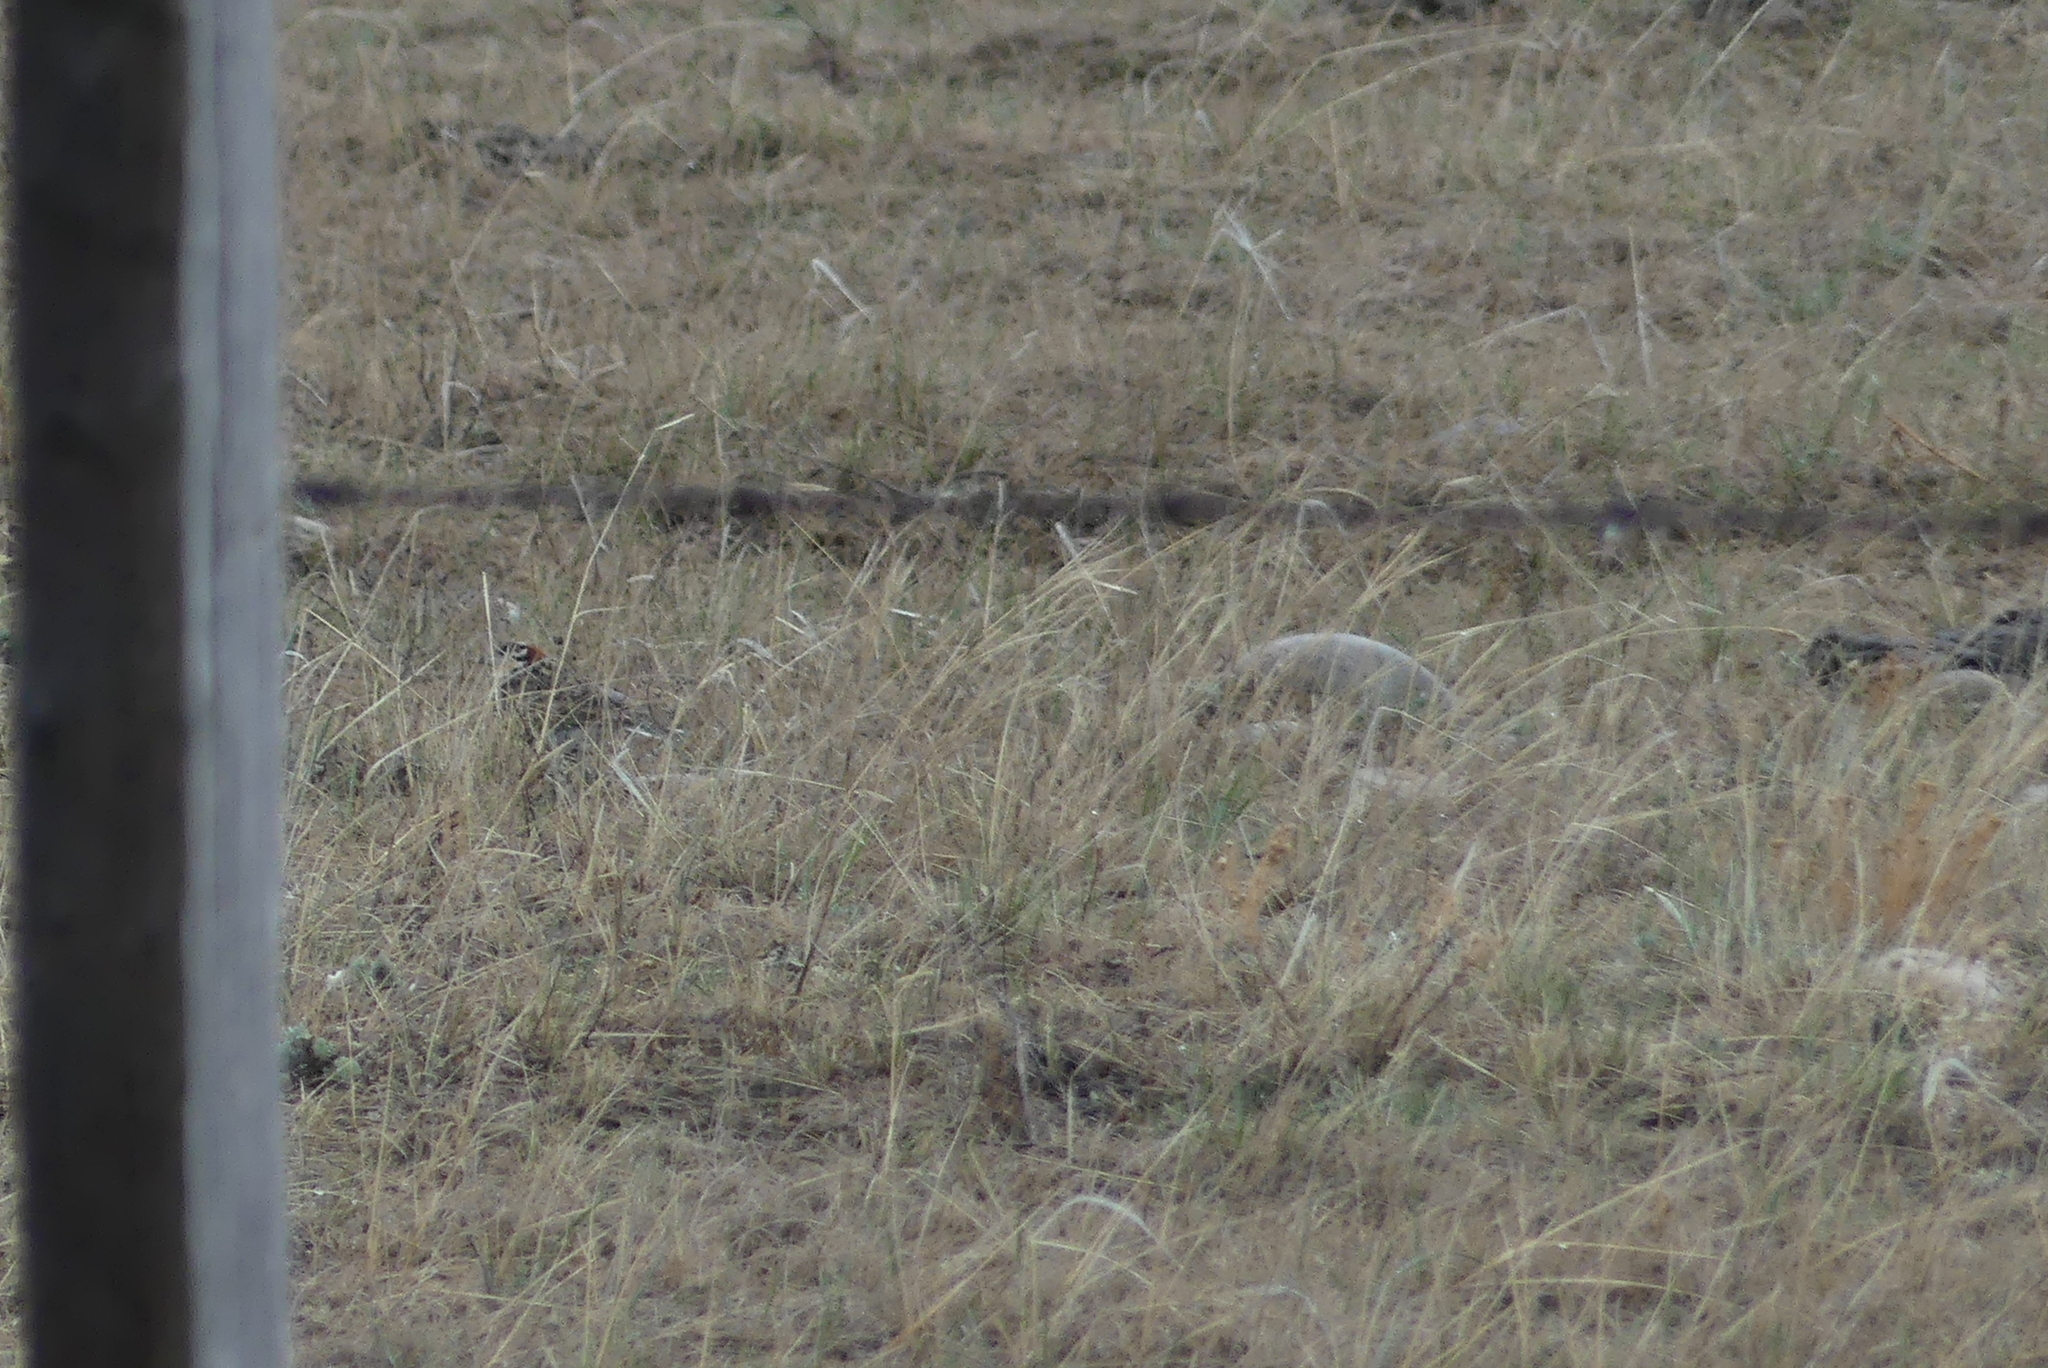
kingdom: Animalia
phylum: Chordata
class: Aves
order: Passeriformes
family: Calcariidae
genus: Calcarius
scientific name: Calcarius ornatus
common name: Chestnut-collared longspur
